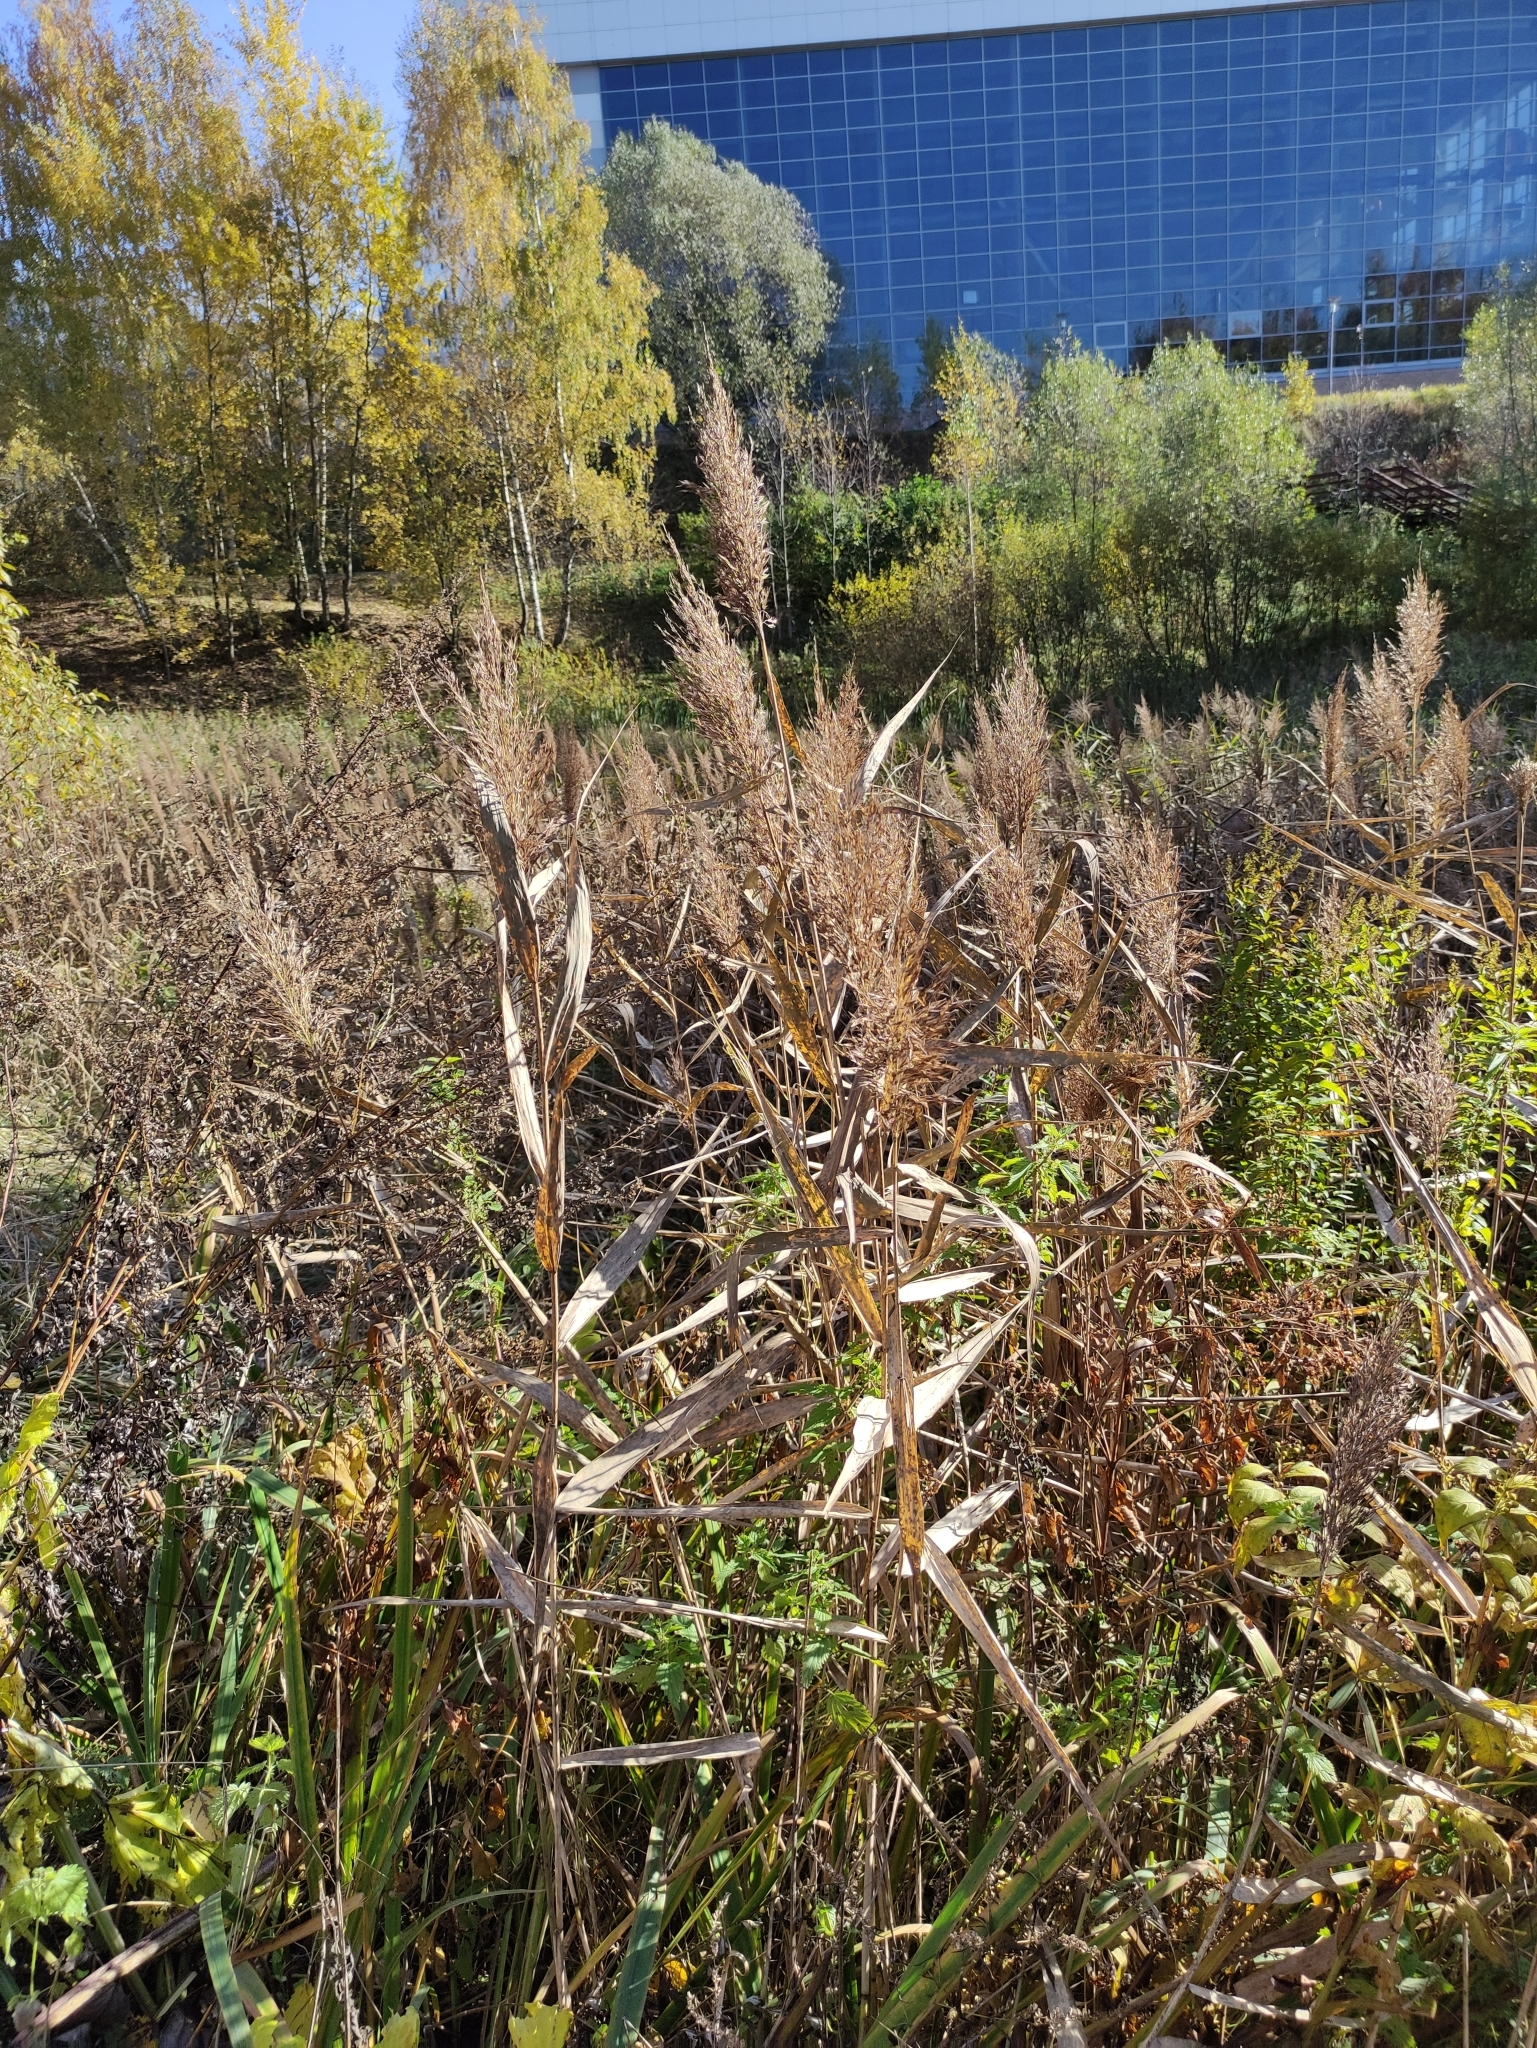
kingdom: Plantae
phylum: Tracheophyta
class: Liliopsida
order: Poales
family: Poaceae
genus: Phragmites
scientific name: Phragmites australis
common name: Common reed
